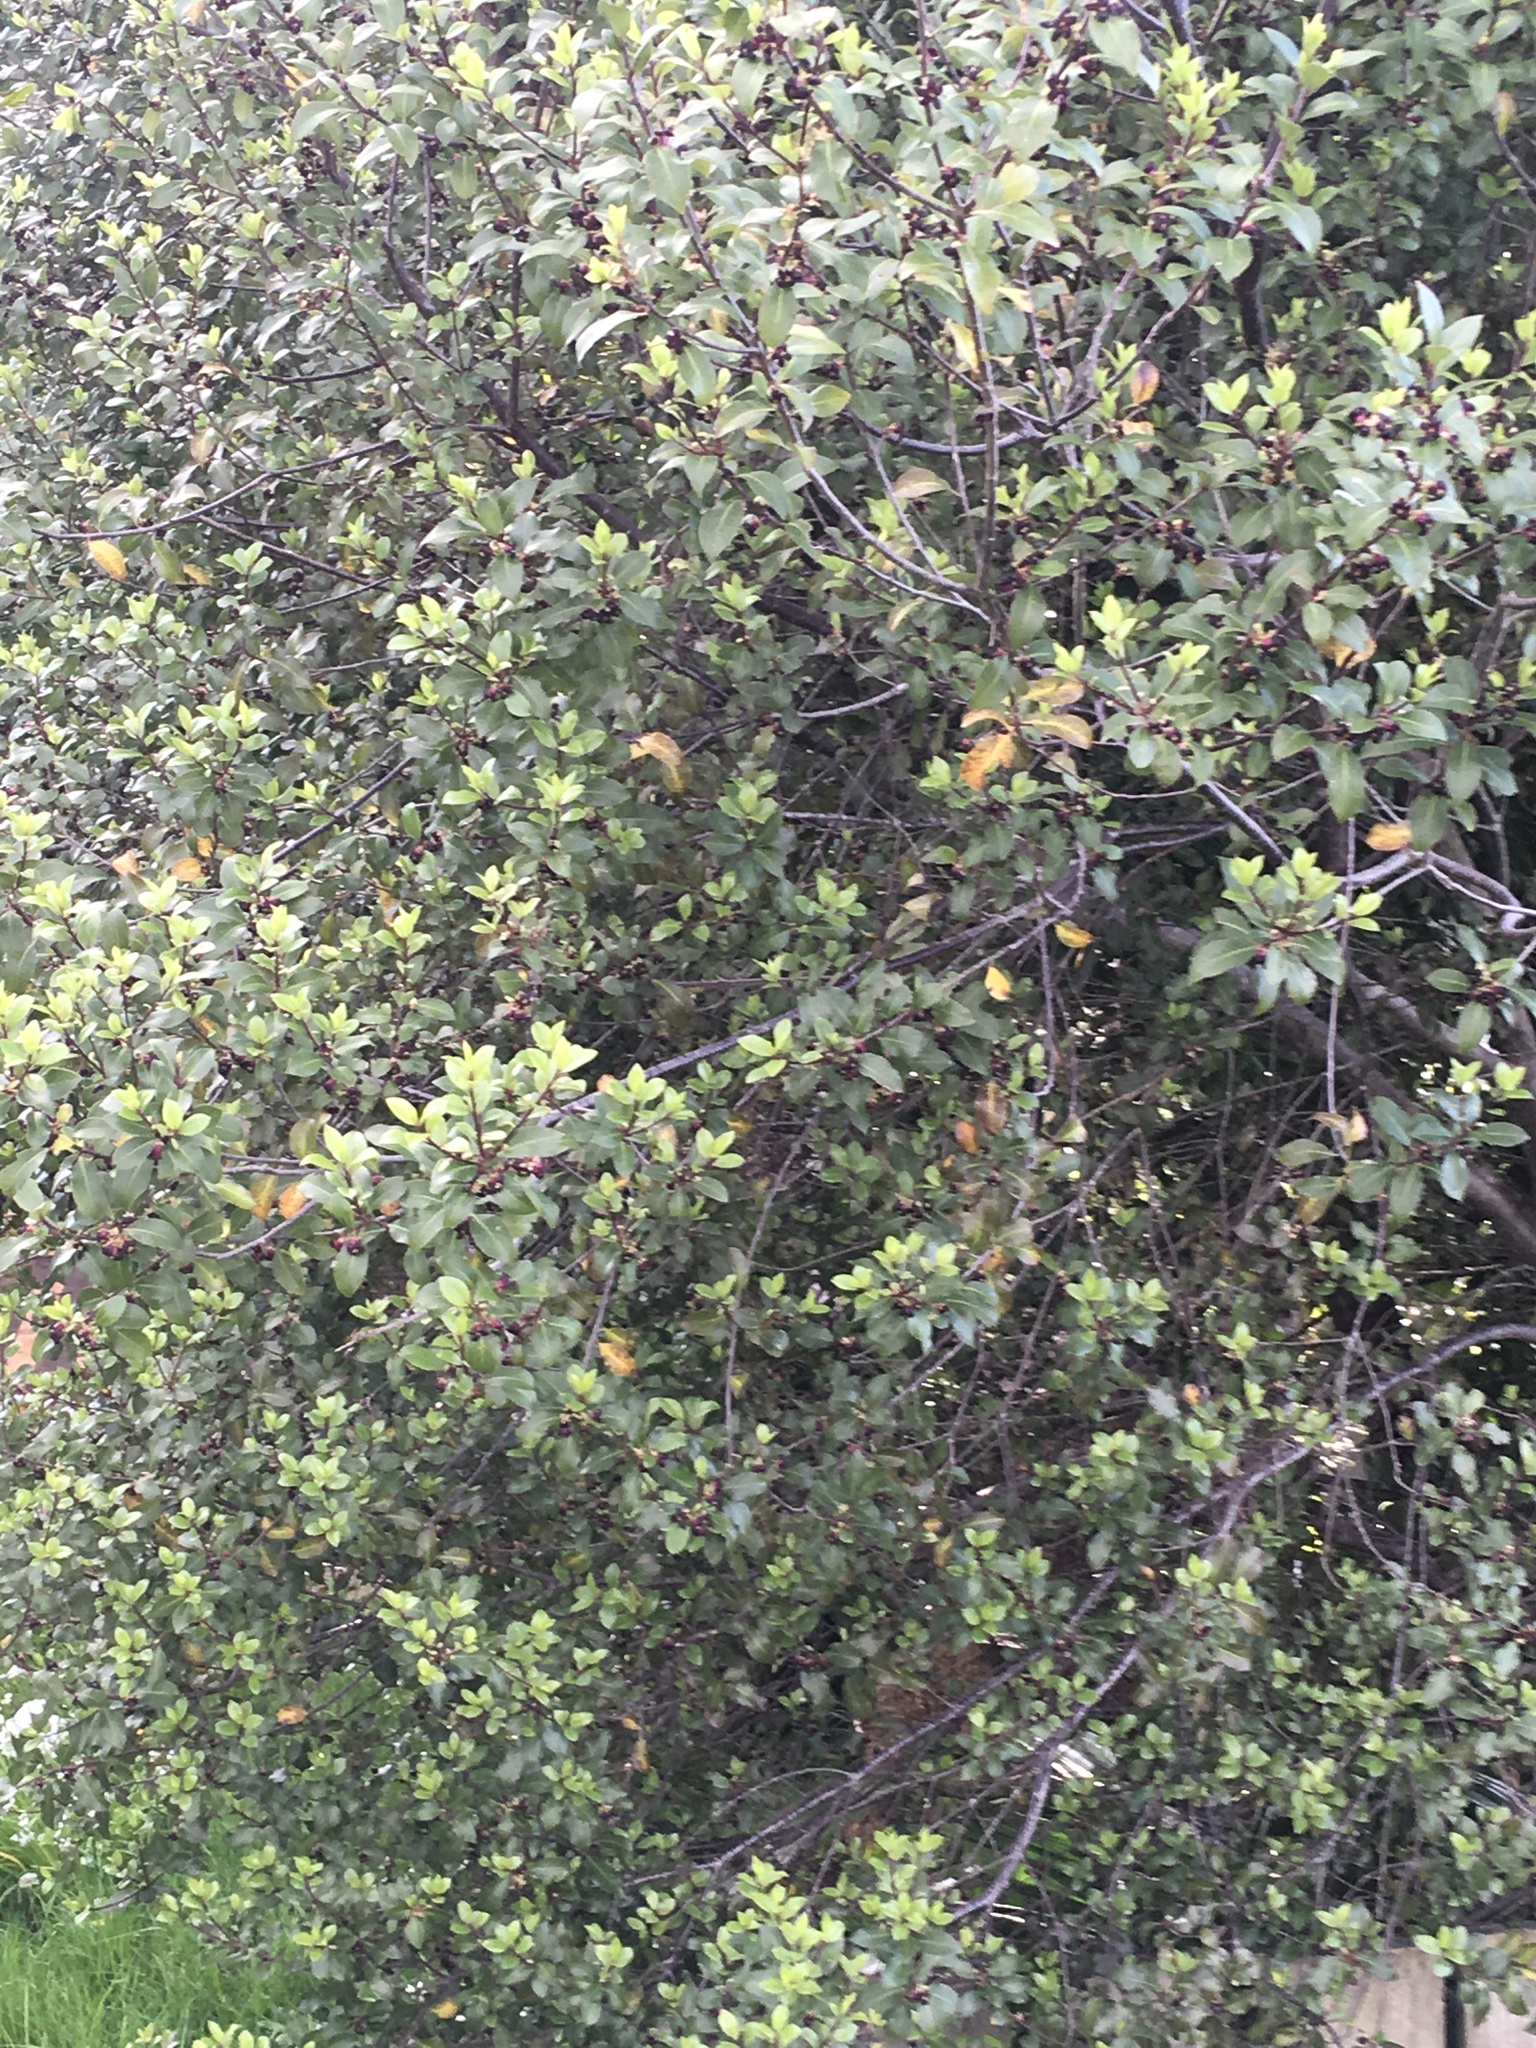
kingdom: Plantae
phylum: Tracheophyta
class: Magnoliopsida
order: Apiales
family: Pittosporaceae
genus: Pittosporum
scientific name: Pittosporum tenuifolium
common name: Kohuhu
